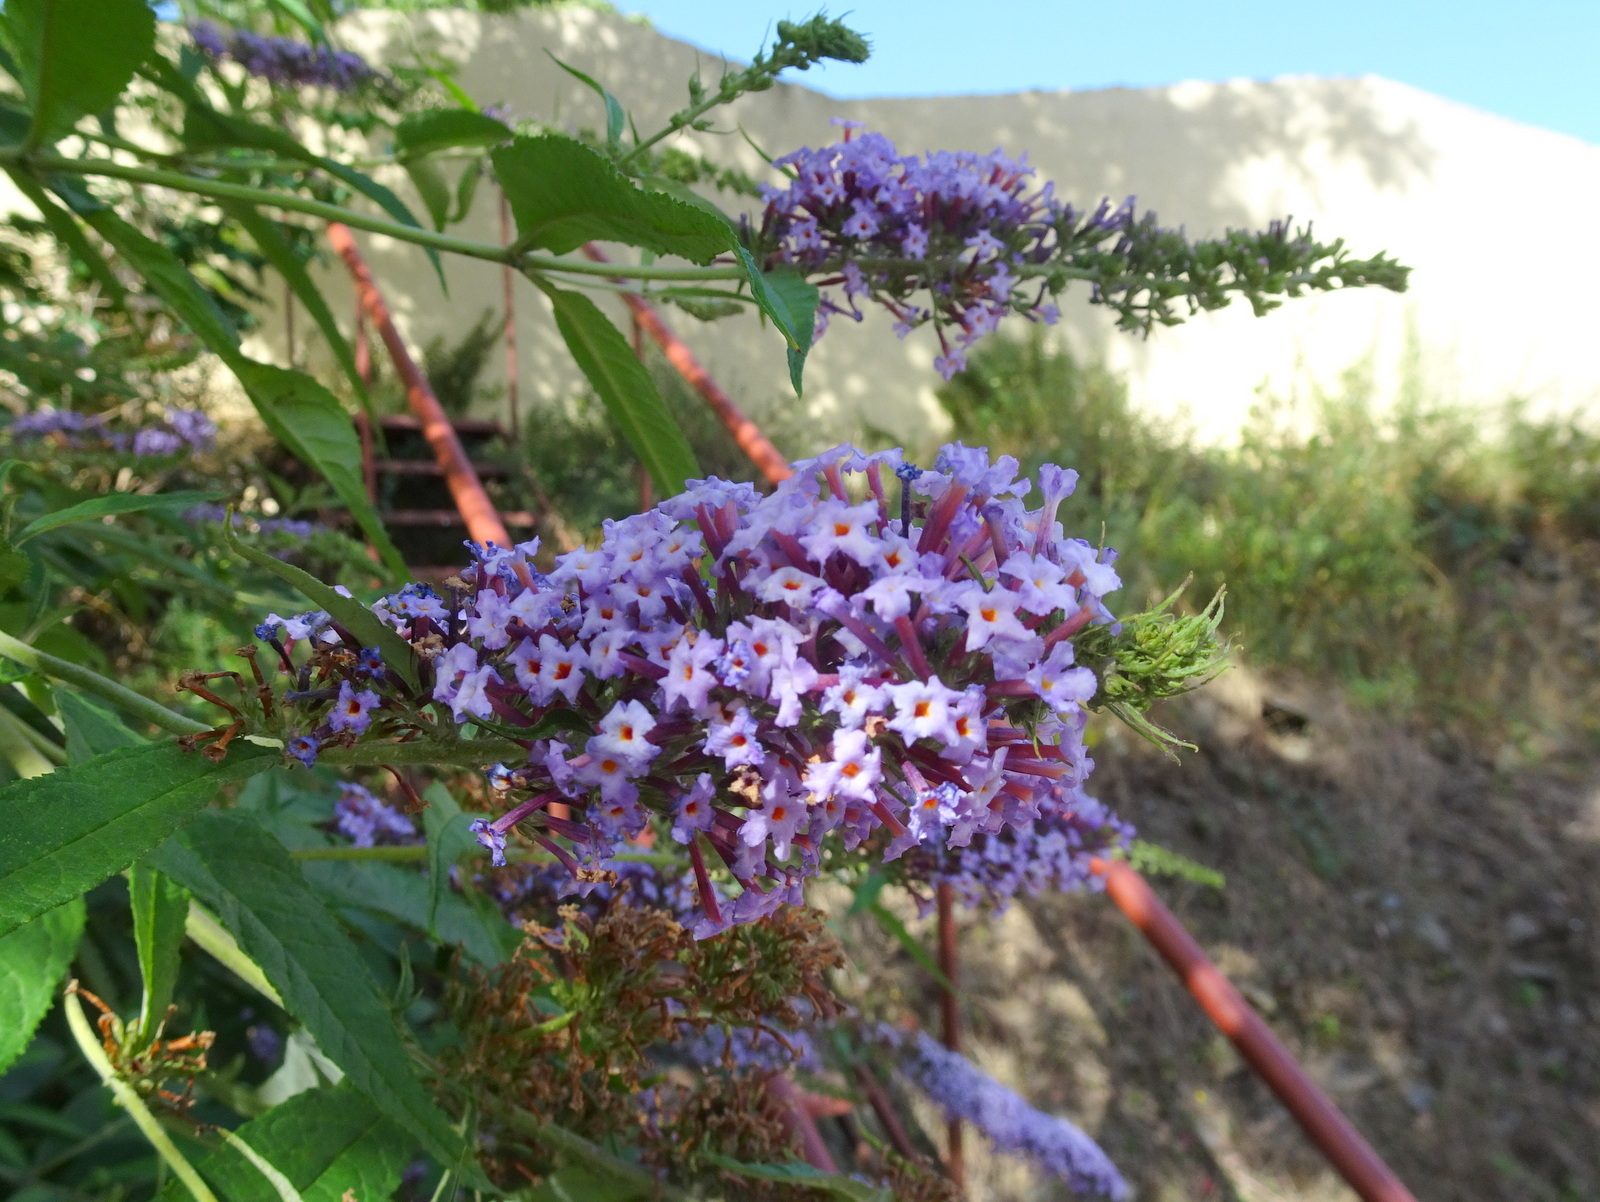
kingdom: Plantae
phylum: Tracheophyta
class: Magnoliopsida
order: Lamiales
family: Scrophulariaceae
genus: Buddleja
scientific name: Buddleja davidii
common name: Butterfly-bush
